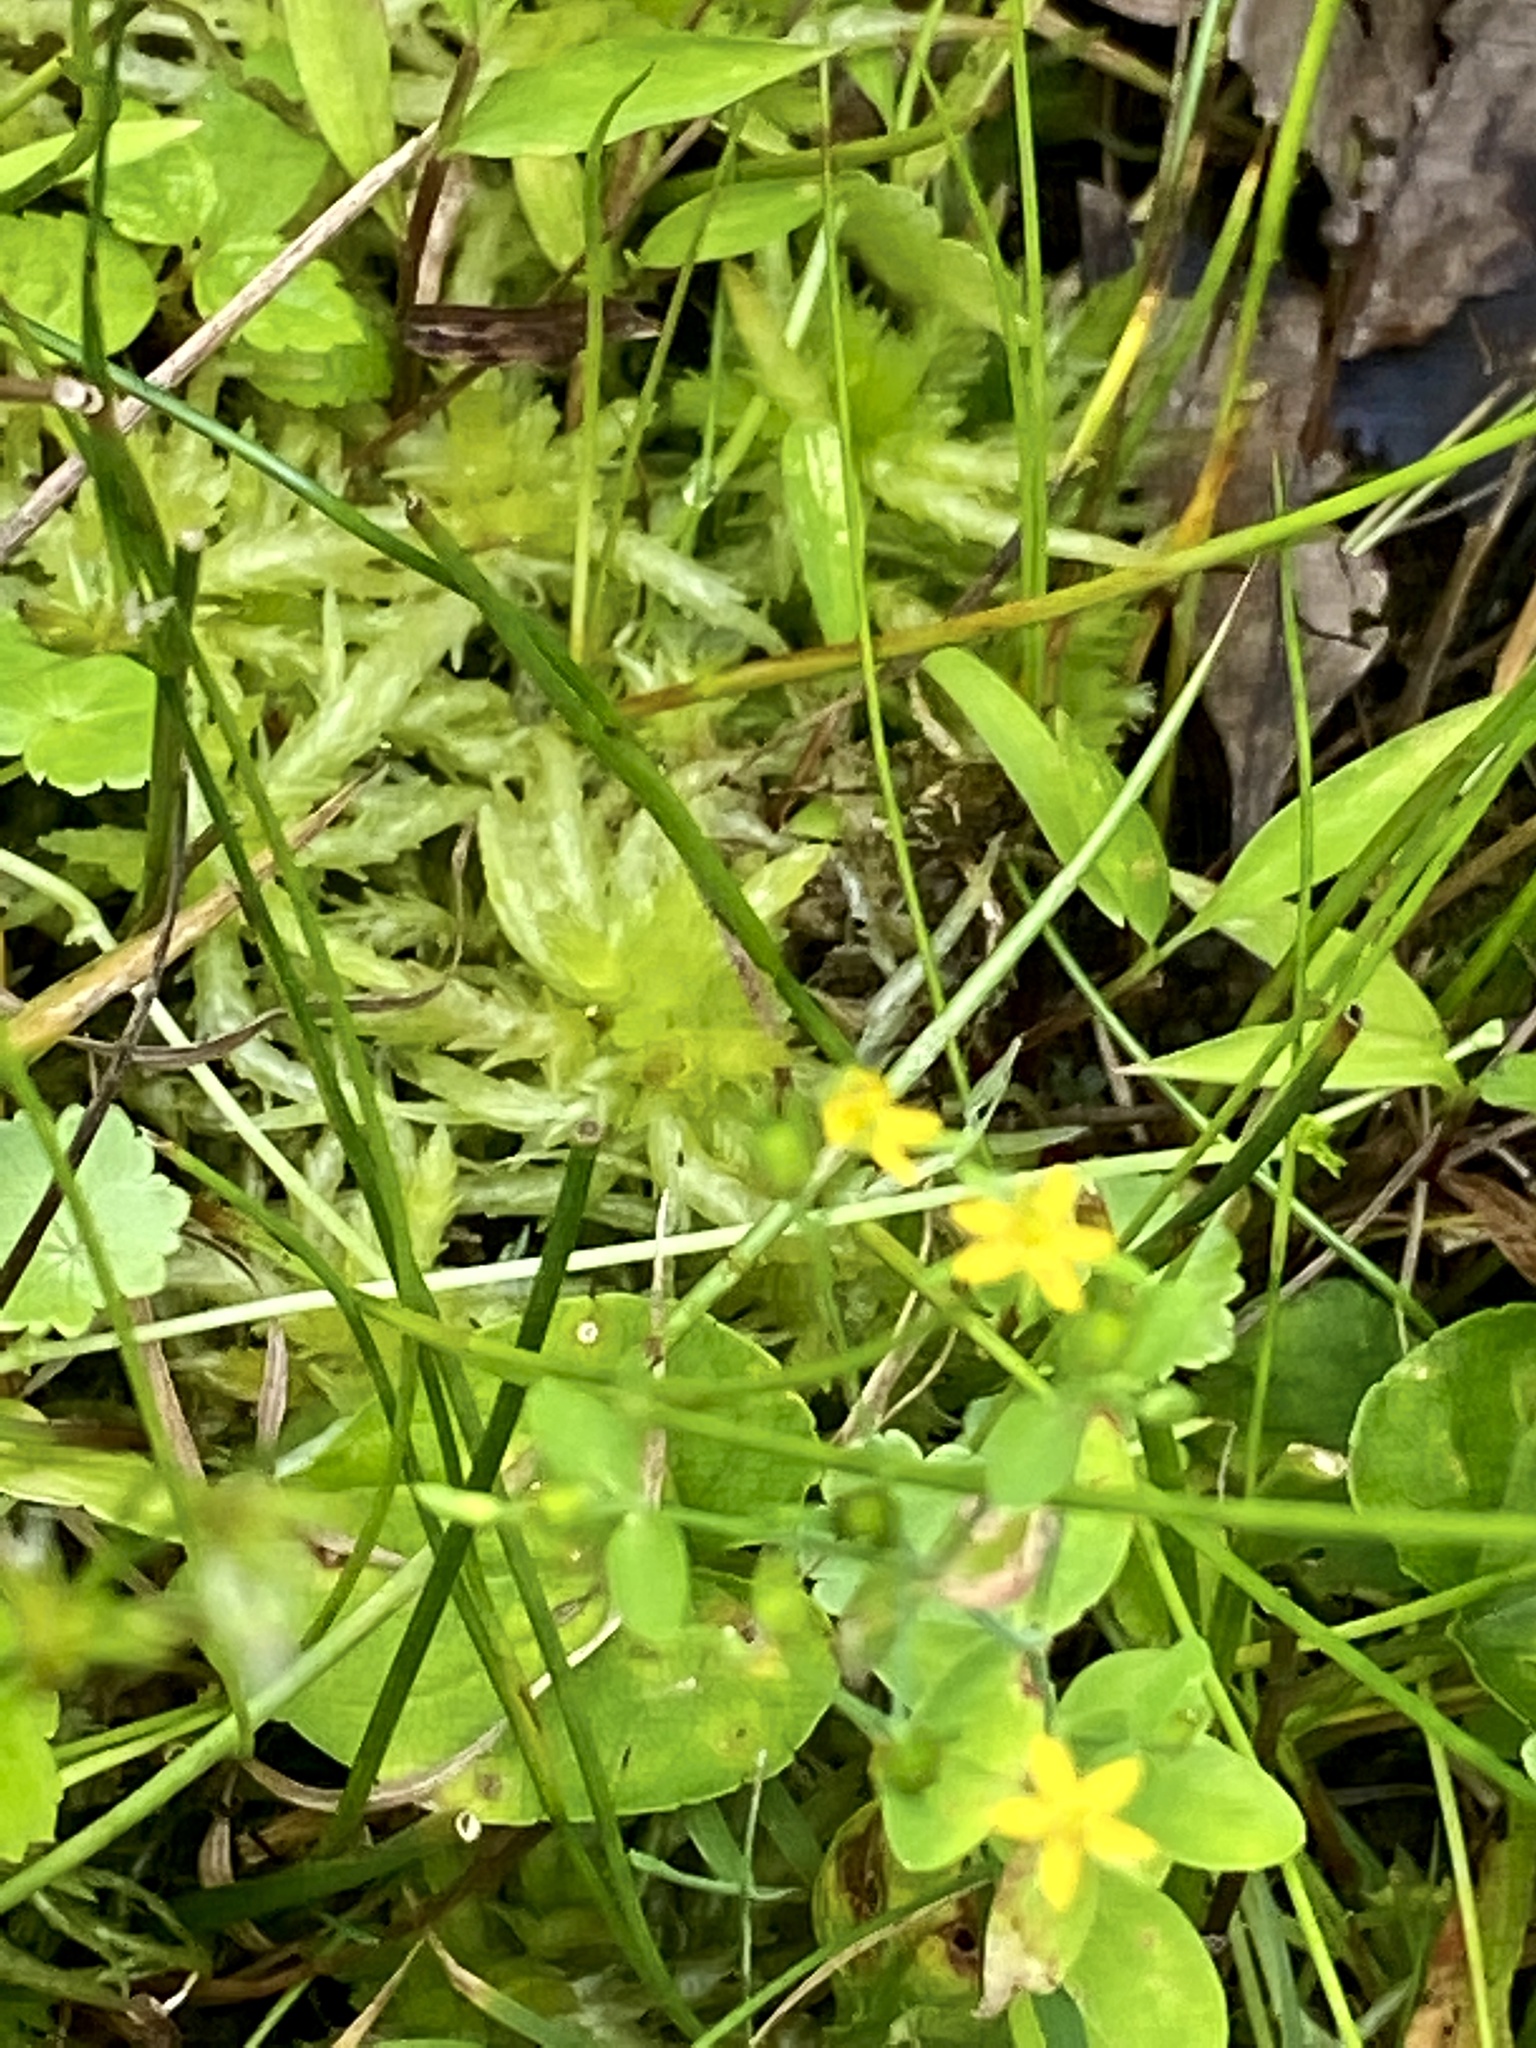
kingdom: Plantae
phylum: Tracheophyta
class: Magnoliopsida
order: Malpighiales
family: Hypericaceae
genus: Hypericum
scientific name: Hypericum mutilum
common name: Dwarf st. john's-wort
